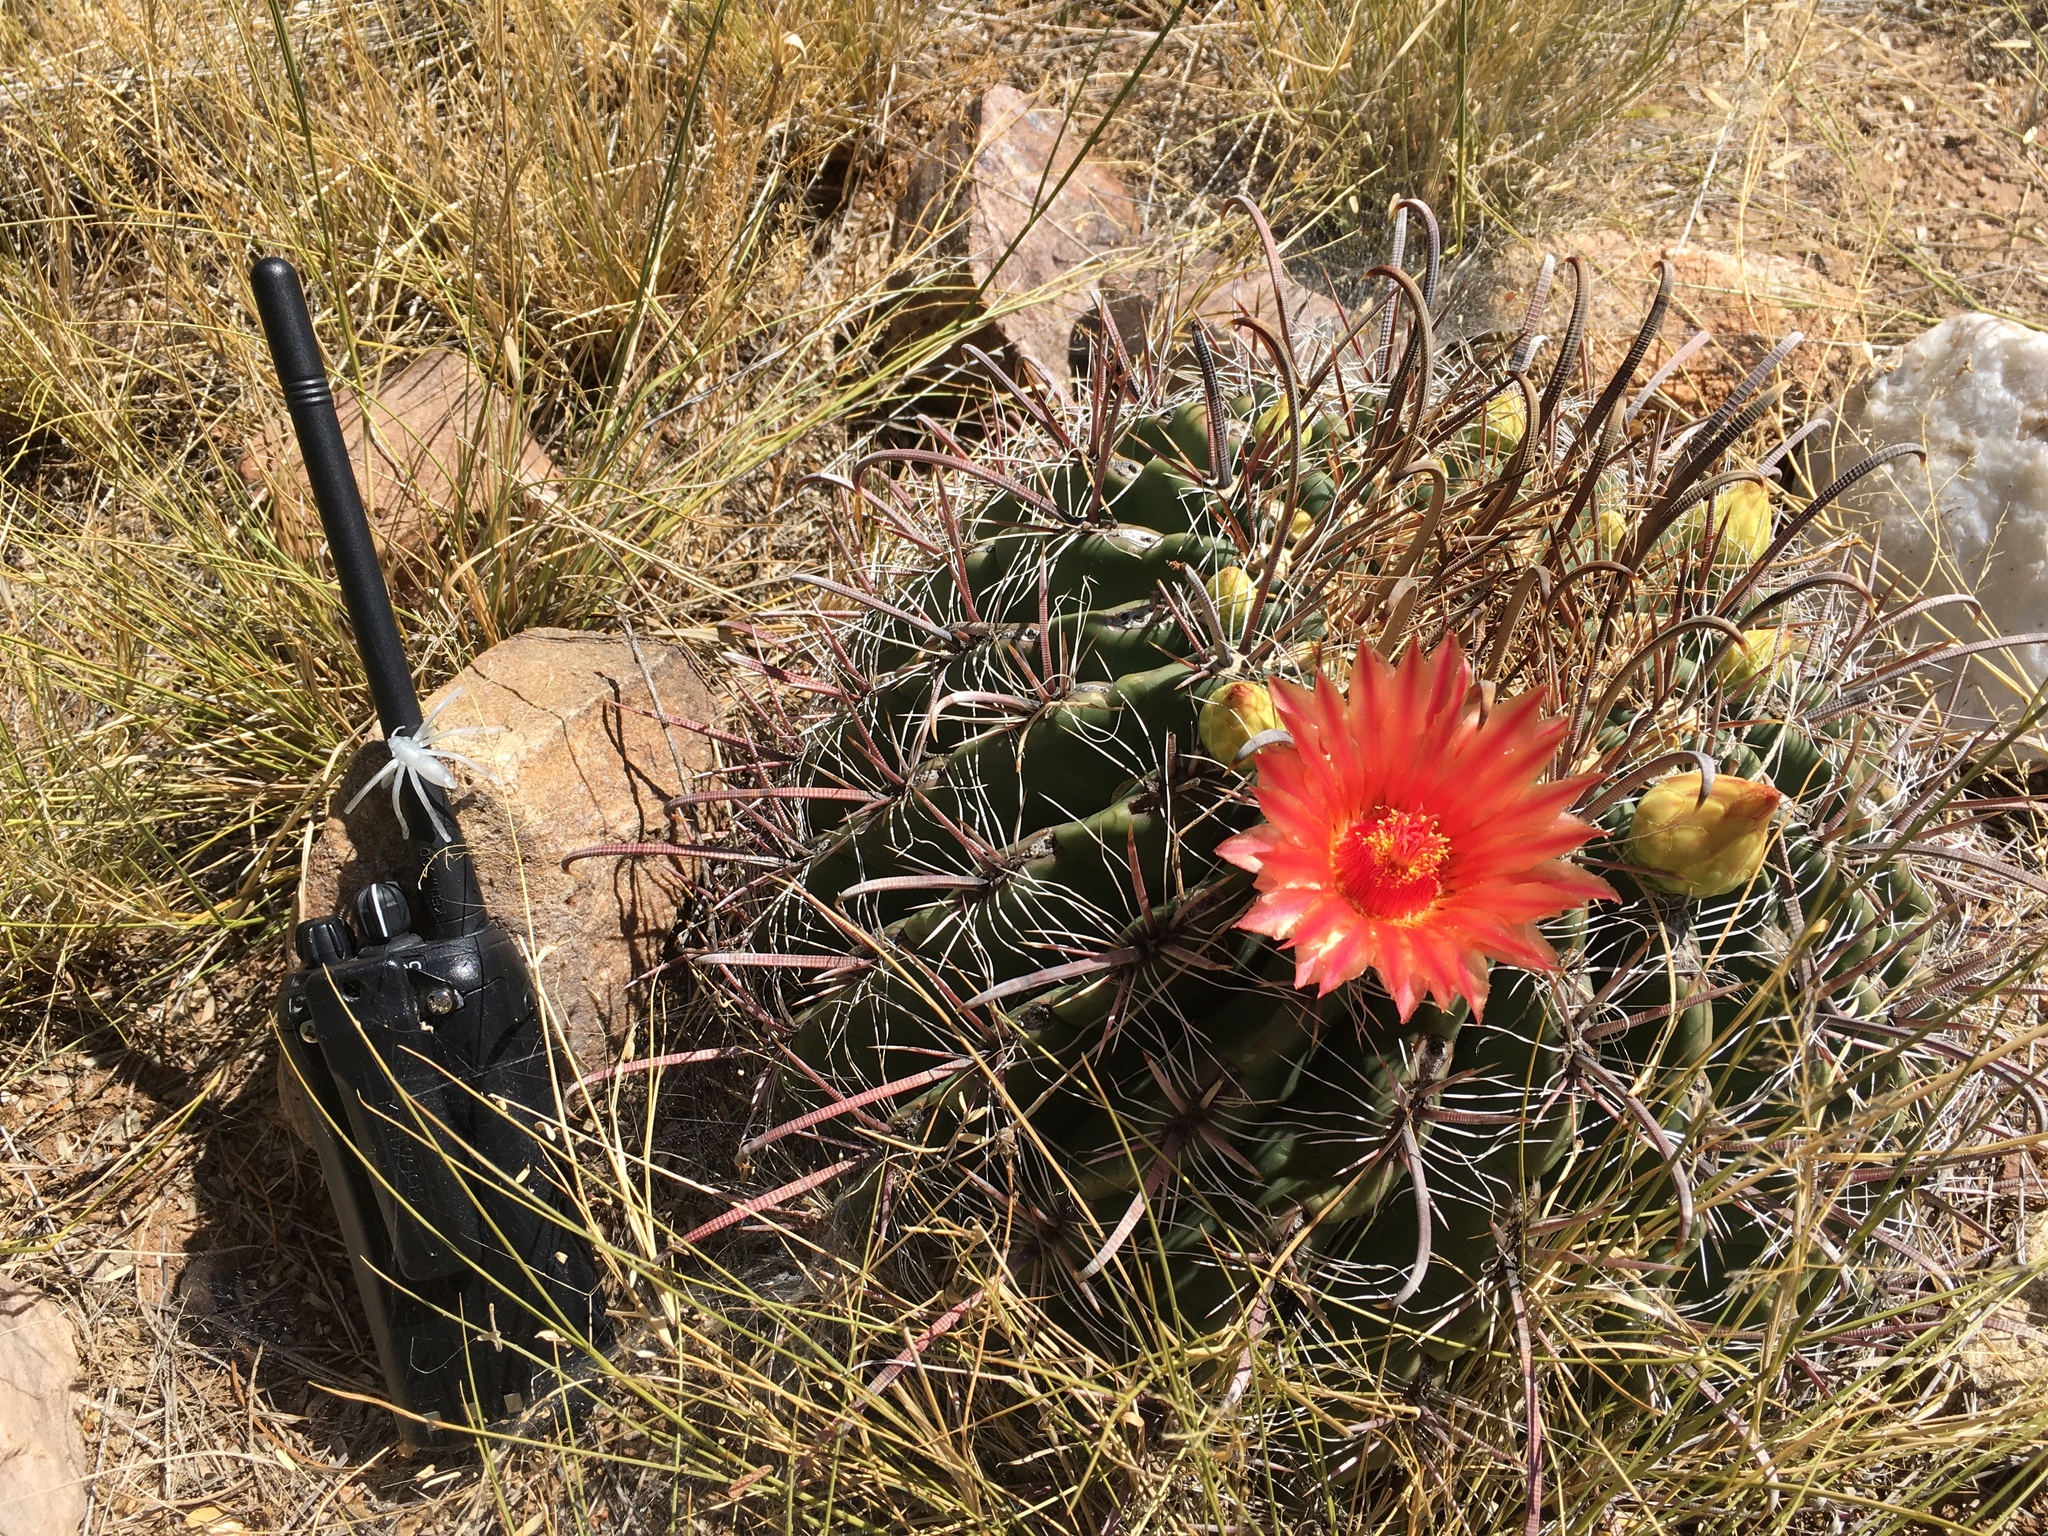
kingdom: Plantae
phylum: Tracheophyta
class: Magnoliopsida
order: Caryophyllales
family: Cactaceae
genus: Ferocactus
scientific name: Ferocactus wislizeni
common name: Candy barrel cactus
